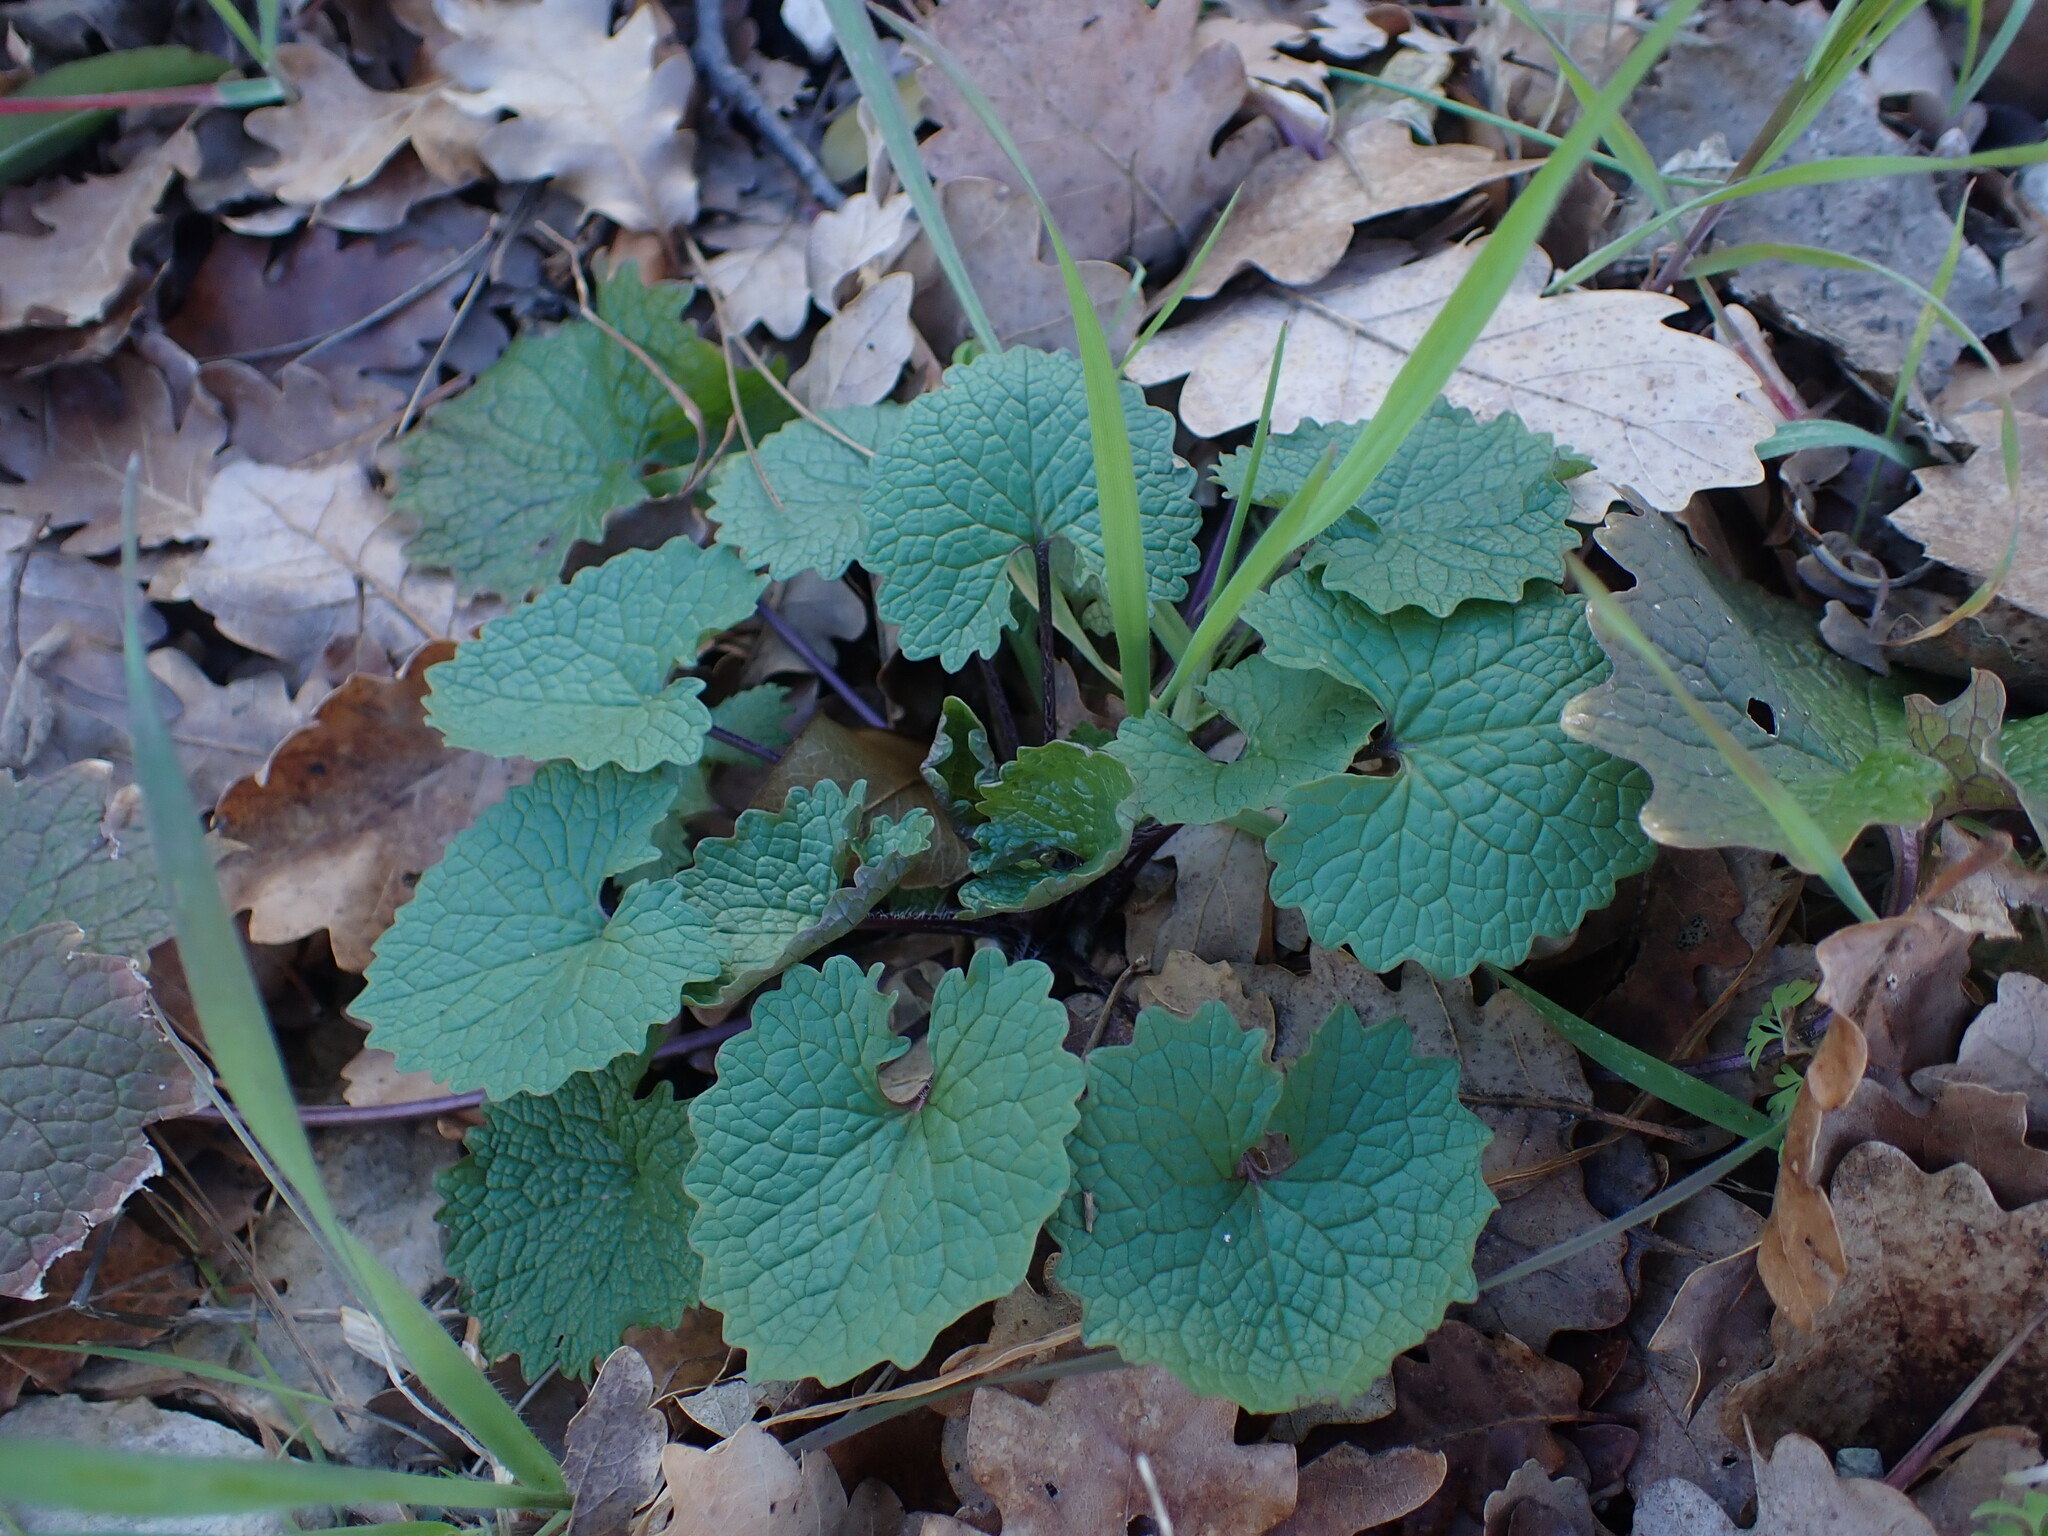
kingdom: Plantae
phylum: Tracheophyta
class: Magnoliopsida
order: Brassicales
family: Brassicaceae
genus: Alliaria
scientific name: Alliaria petiolata
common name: Garlic mustard
